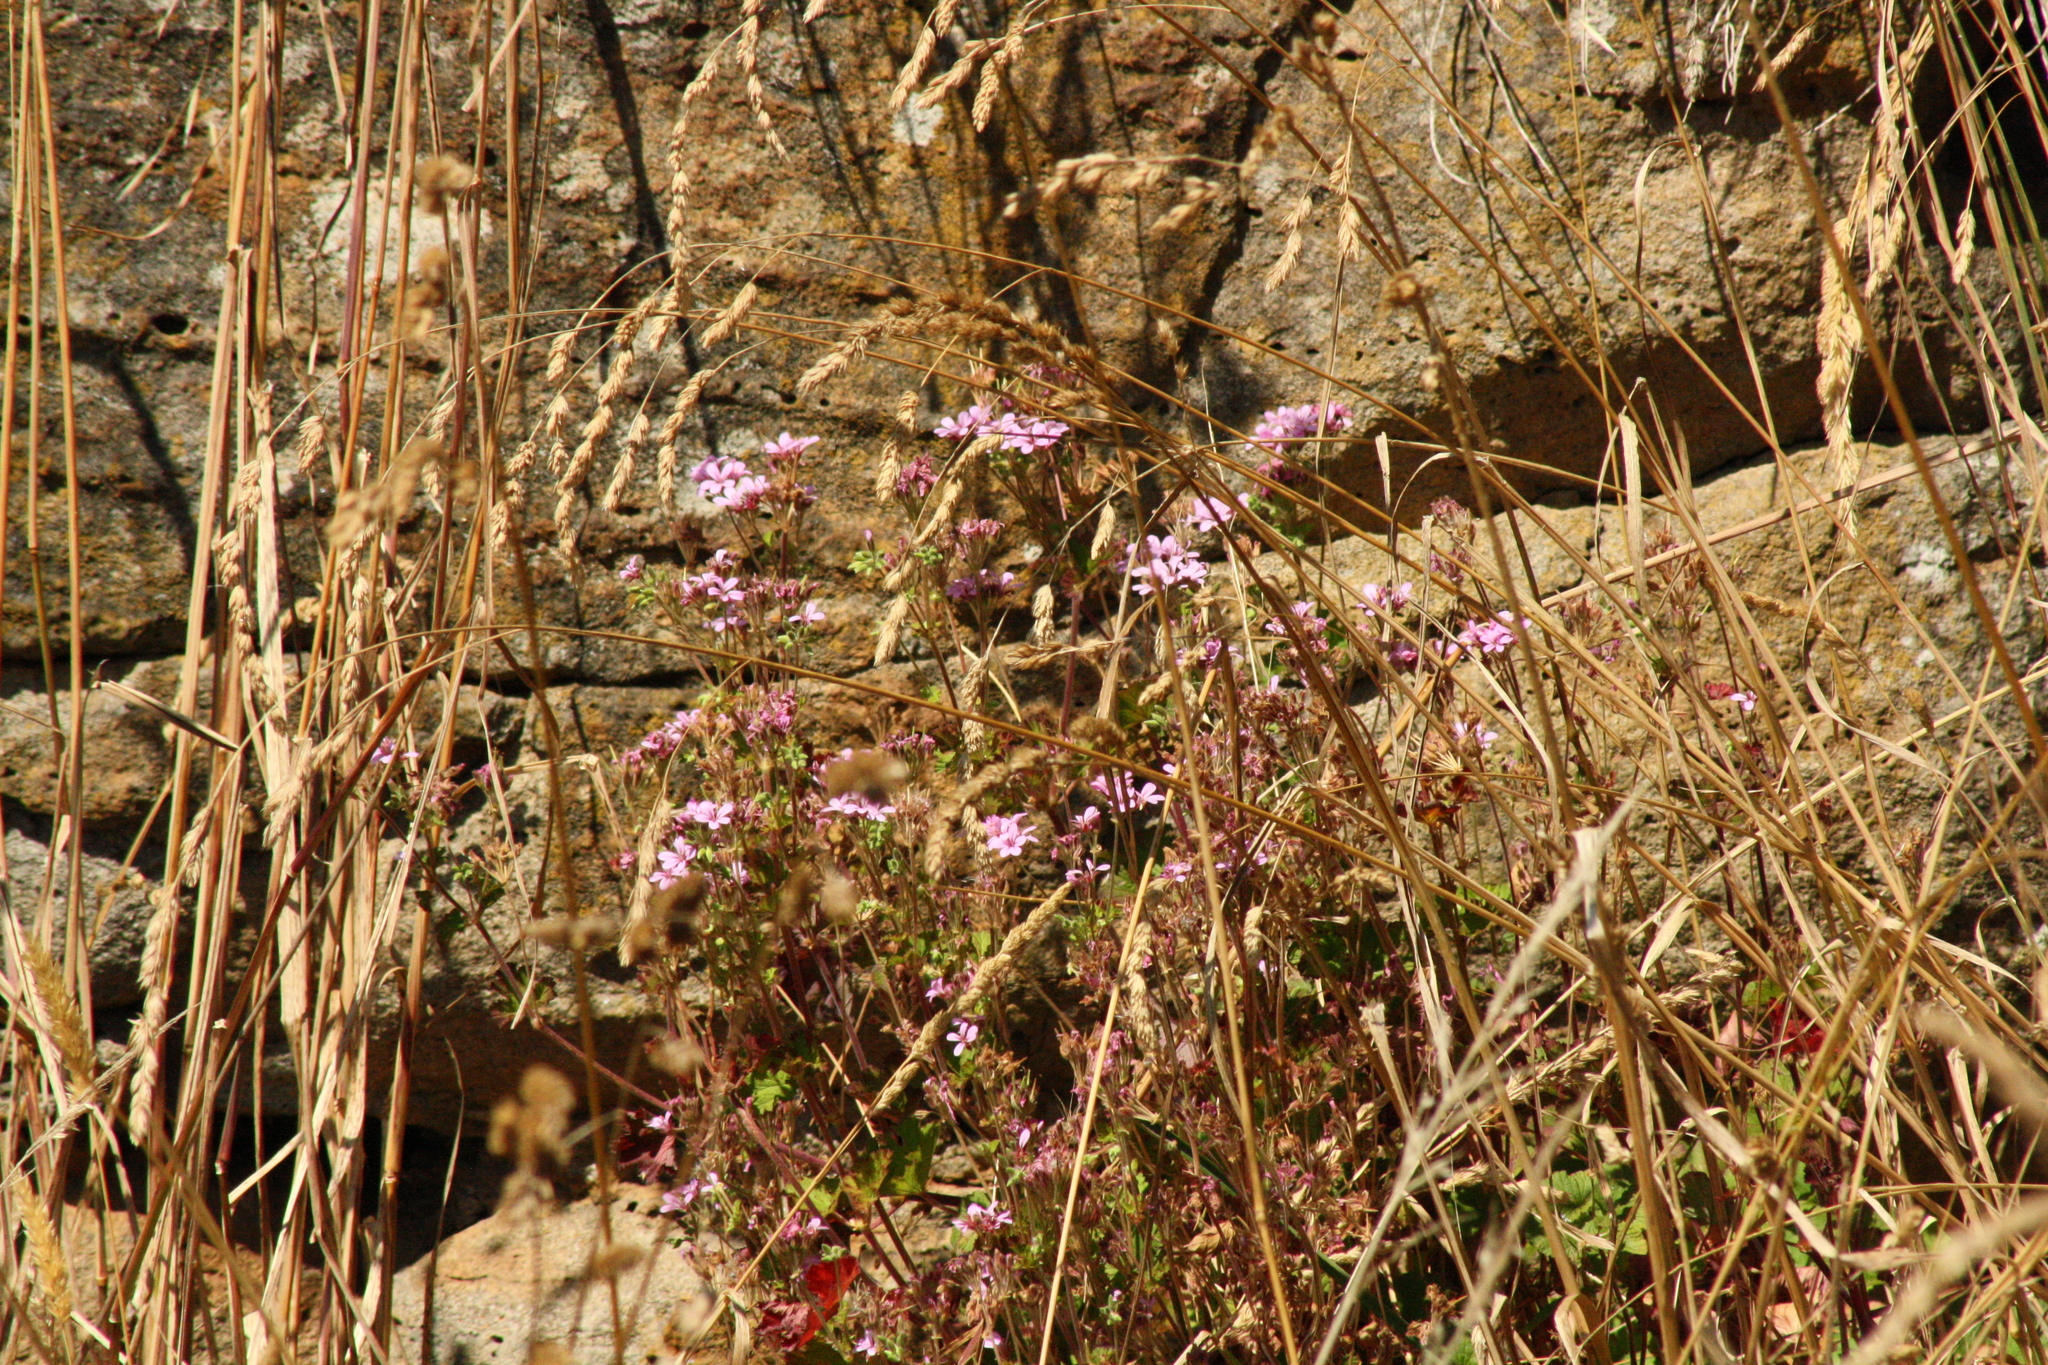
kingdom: Plantae
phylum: Tracheophyta
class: Magnoliopsida
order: Geraniales
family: Geraniaceae
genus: Pelargonium
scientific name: Pelargonium australe
